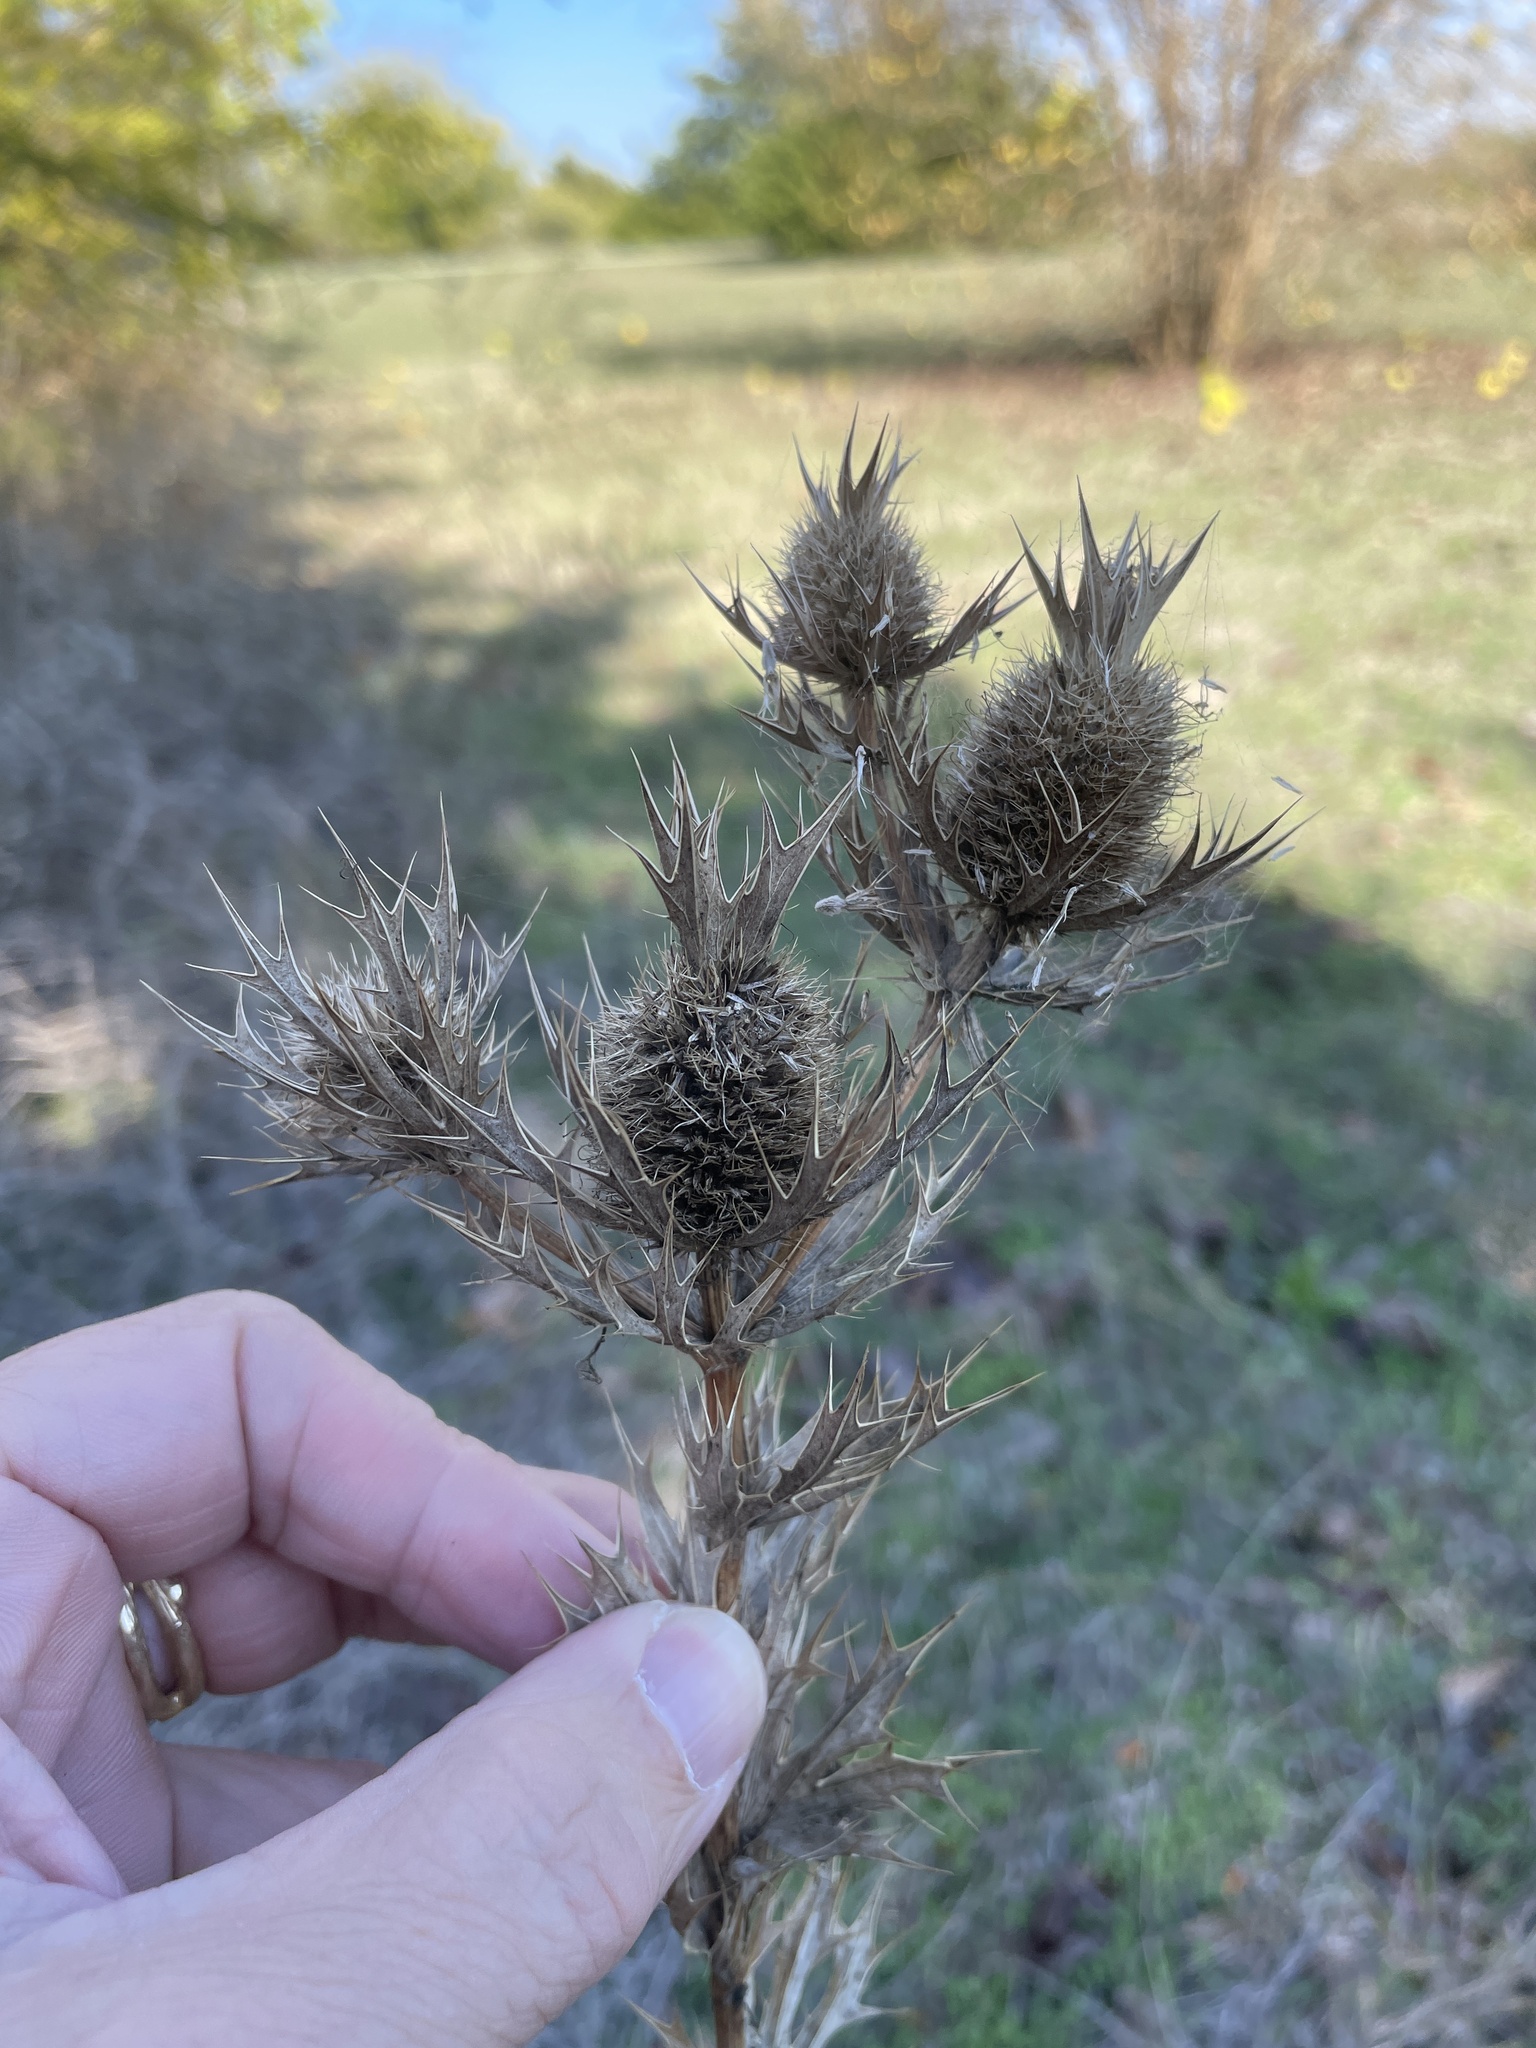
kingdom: Plantae
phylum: Tracheophyta
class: Magnoliopsida
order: Apiales
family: Apiaceae
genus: Eryngium
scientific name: Eryngium leavenworthii
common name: Leavenworth's eryngo
